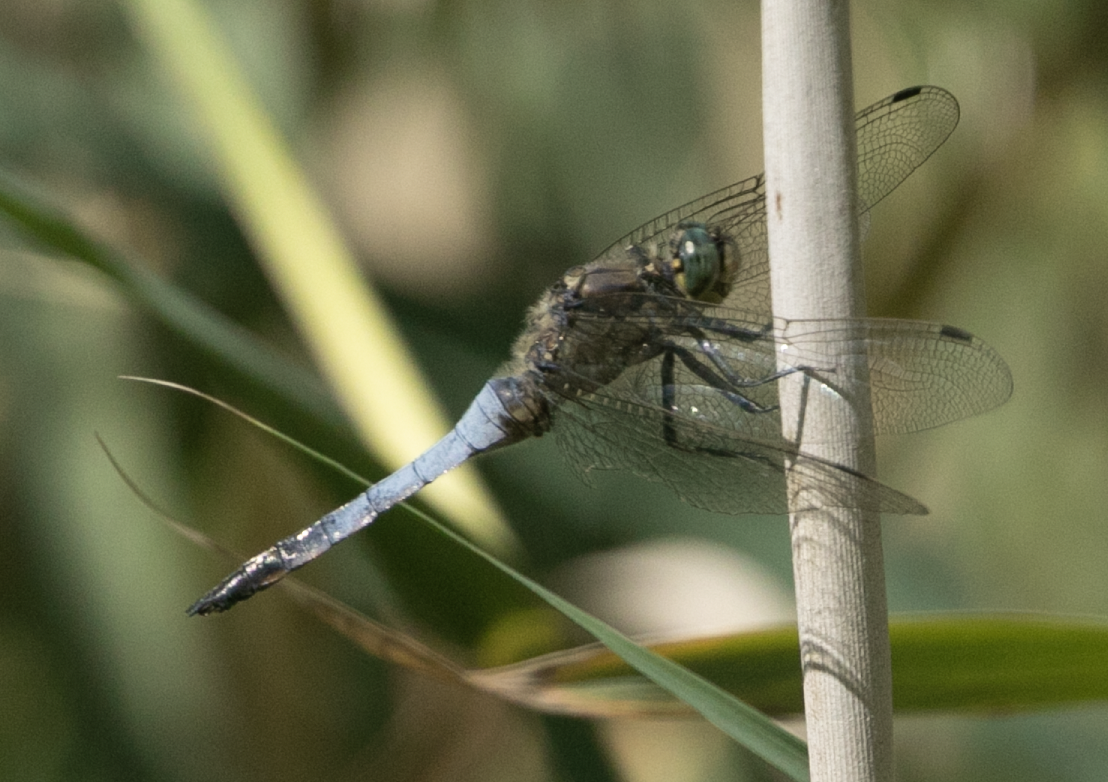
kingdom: Animalia
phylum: Arthropoda
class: Insecta
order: Odonata
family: Libellulidae
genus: Orthetrum
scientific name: Orthetrum cancellatum
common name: Black-tailed skimmer
